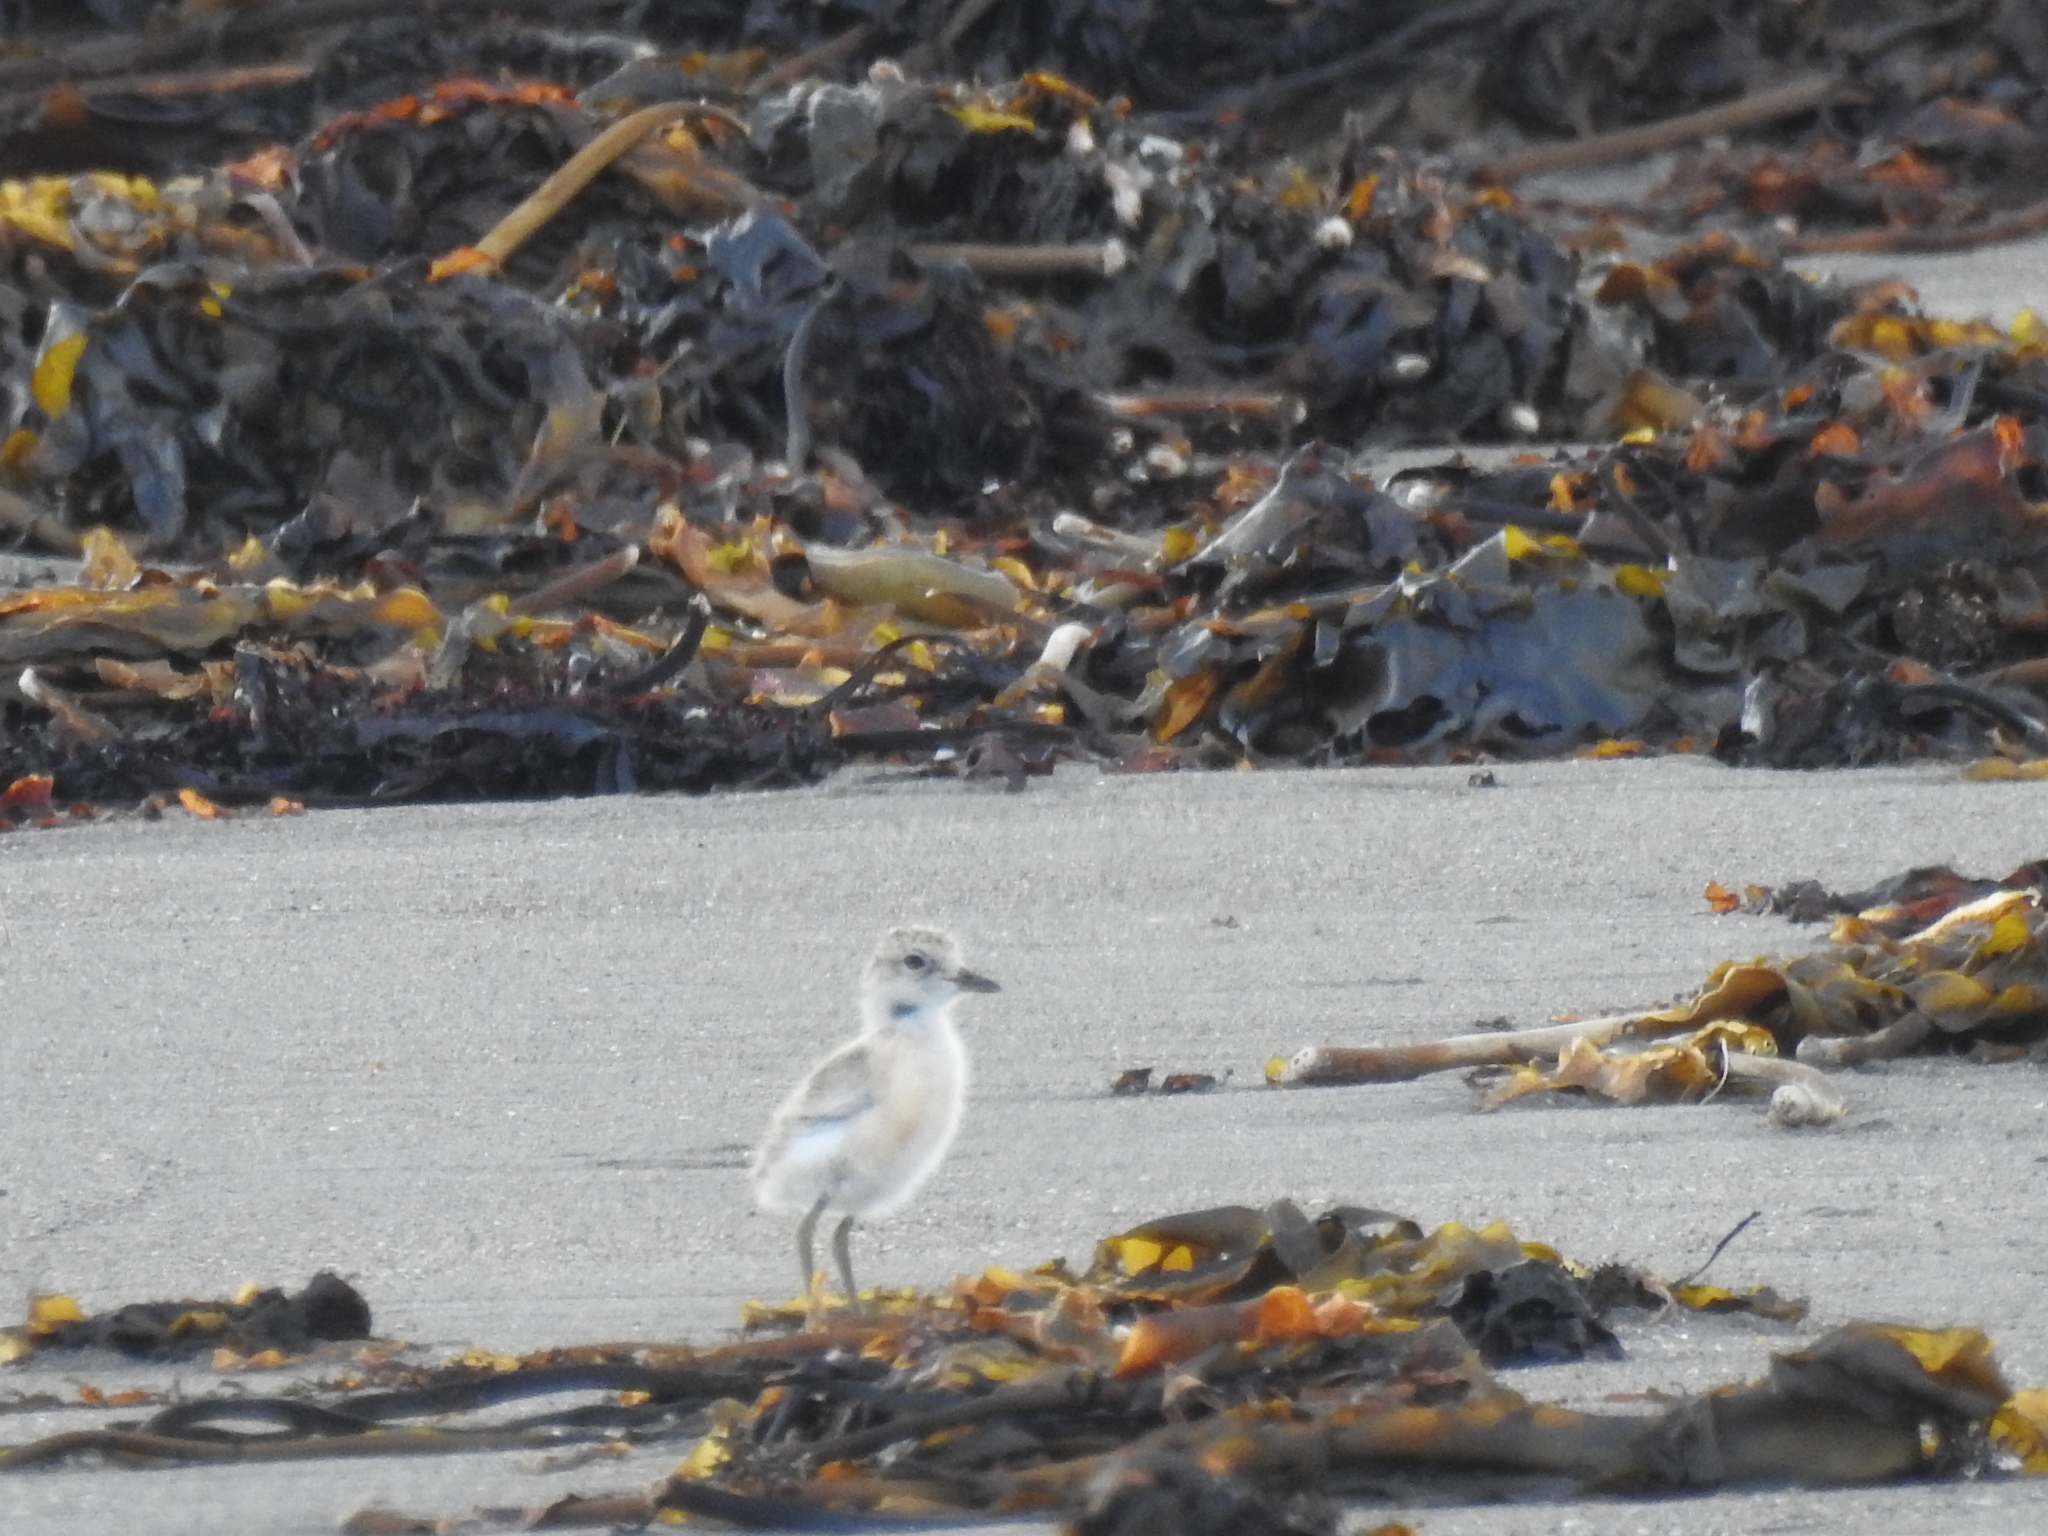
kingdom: Animalia
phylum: Chordata
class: Aves
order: Charadriiformes
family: Charadriidae
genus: Anarhynchus
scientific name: Anarhynchus
